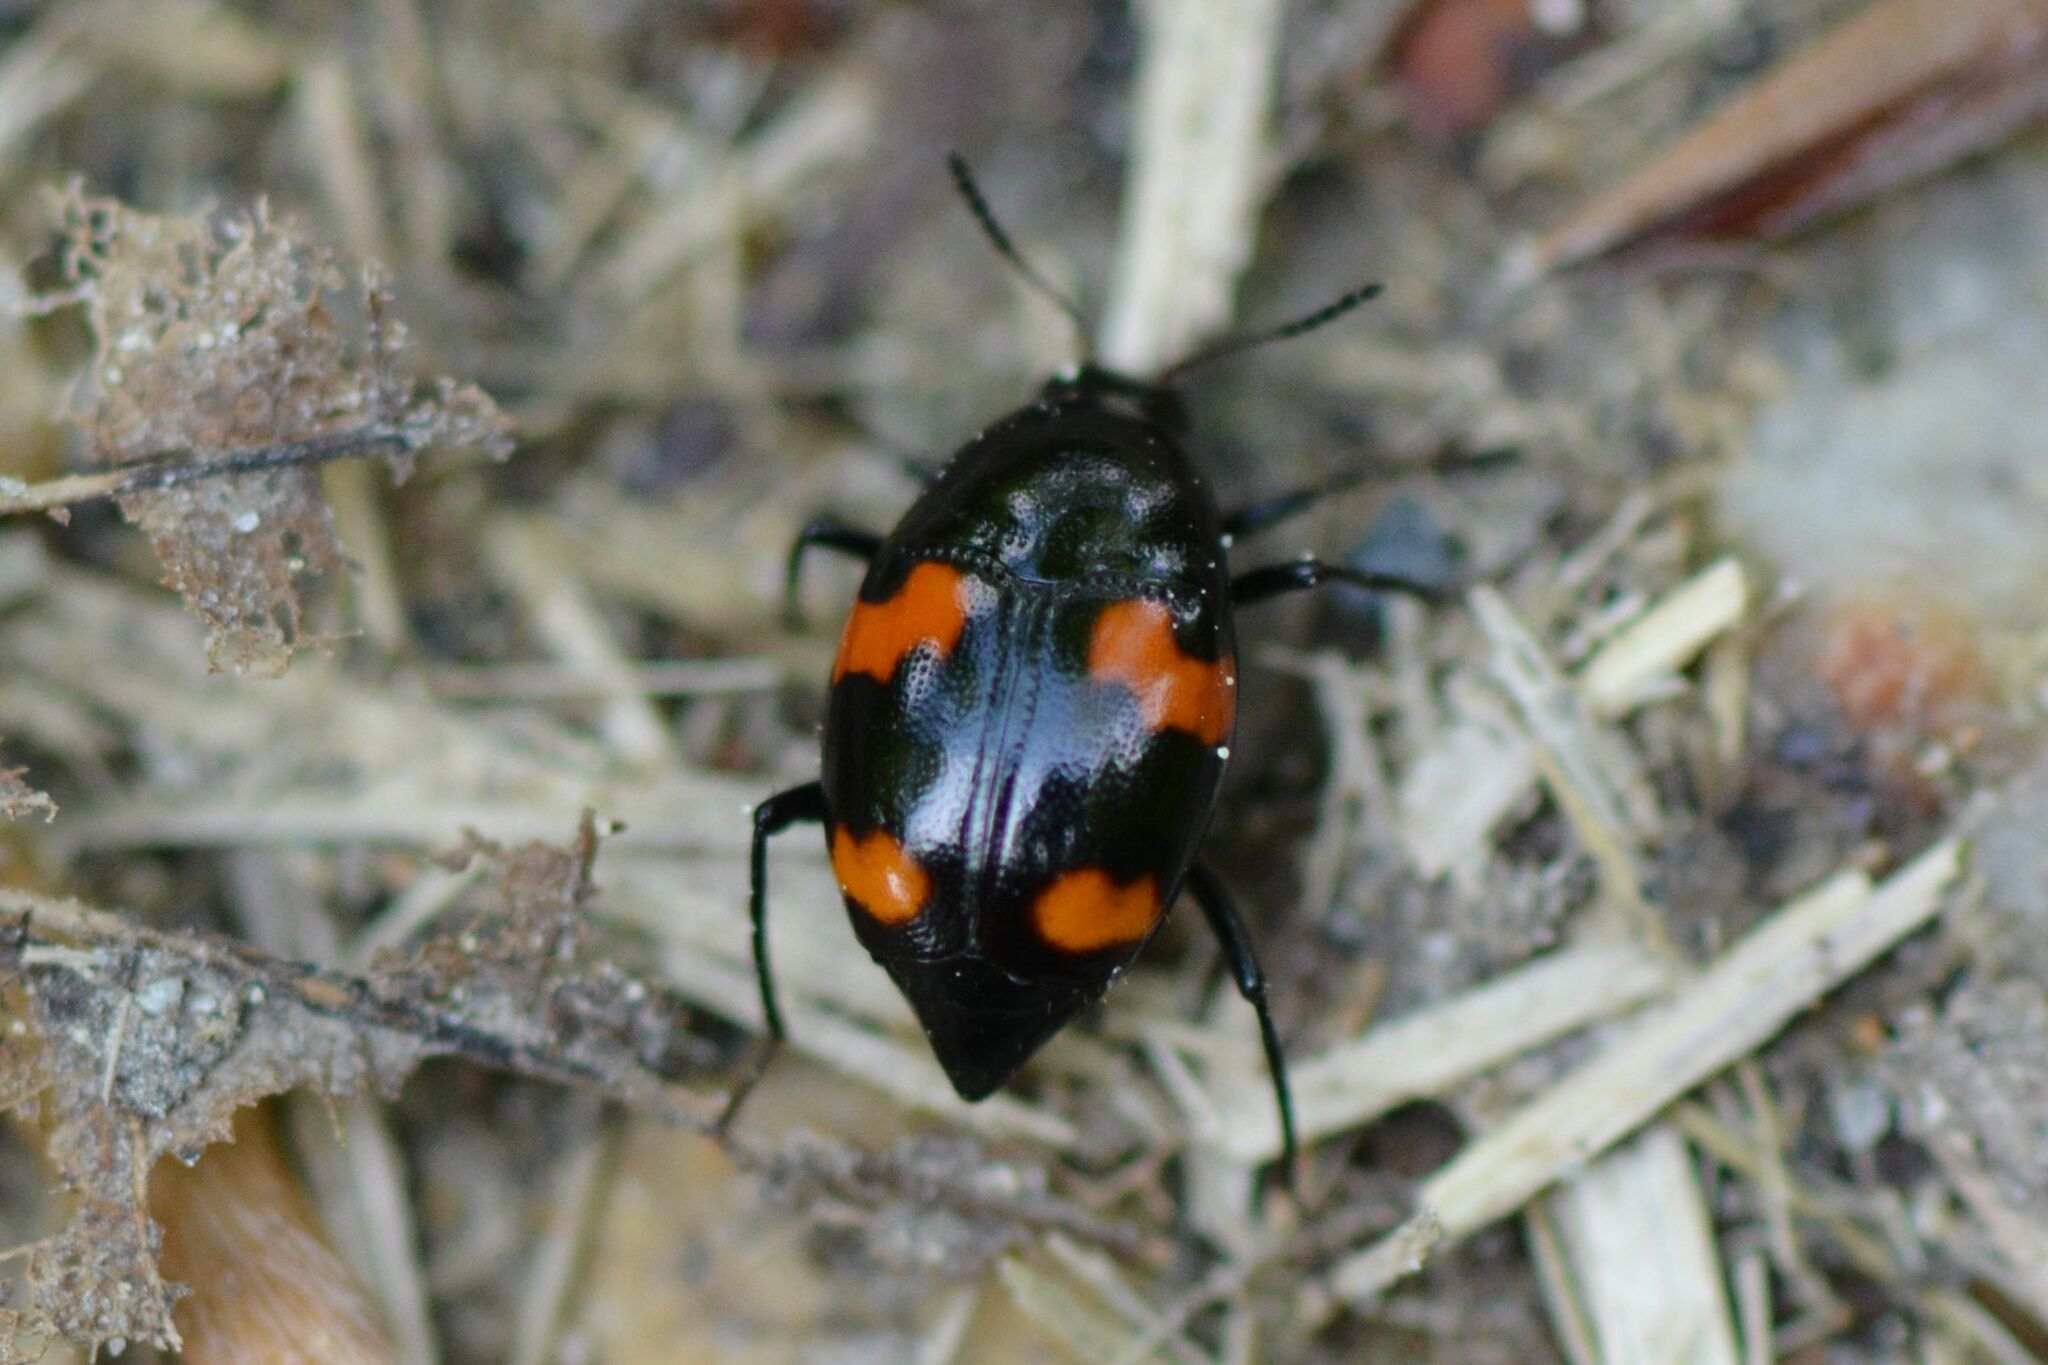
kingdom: Animalia
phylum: Arthropoda
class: Insecta
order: Coleoptera
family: Staphylinidae
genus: Scaphidium
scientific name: Scaphidium quadrimaculatum
